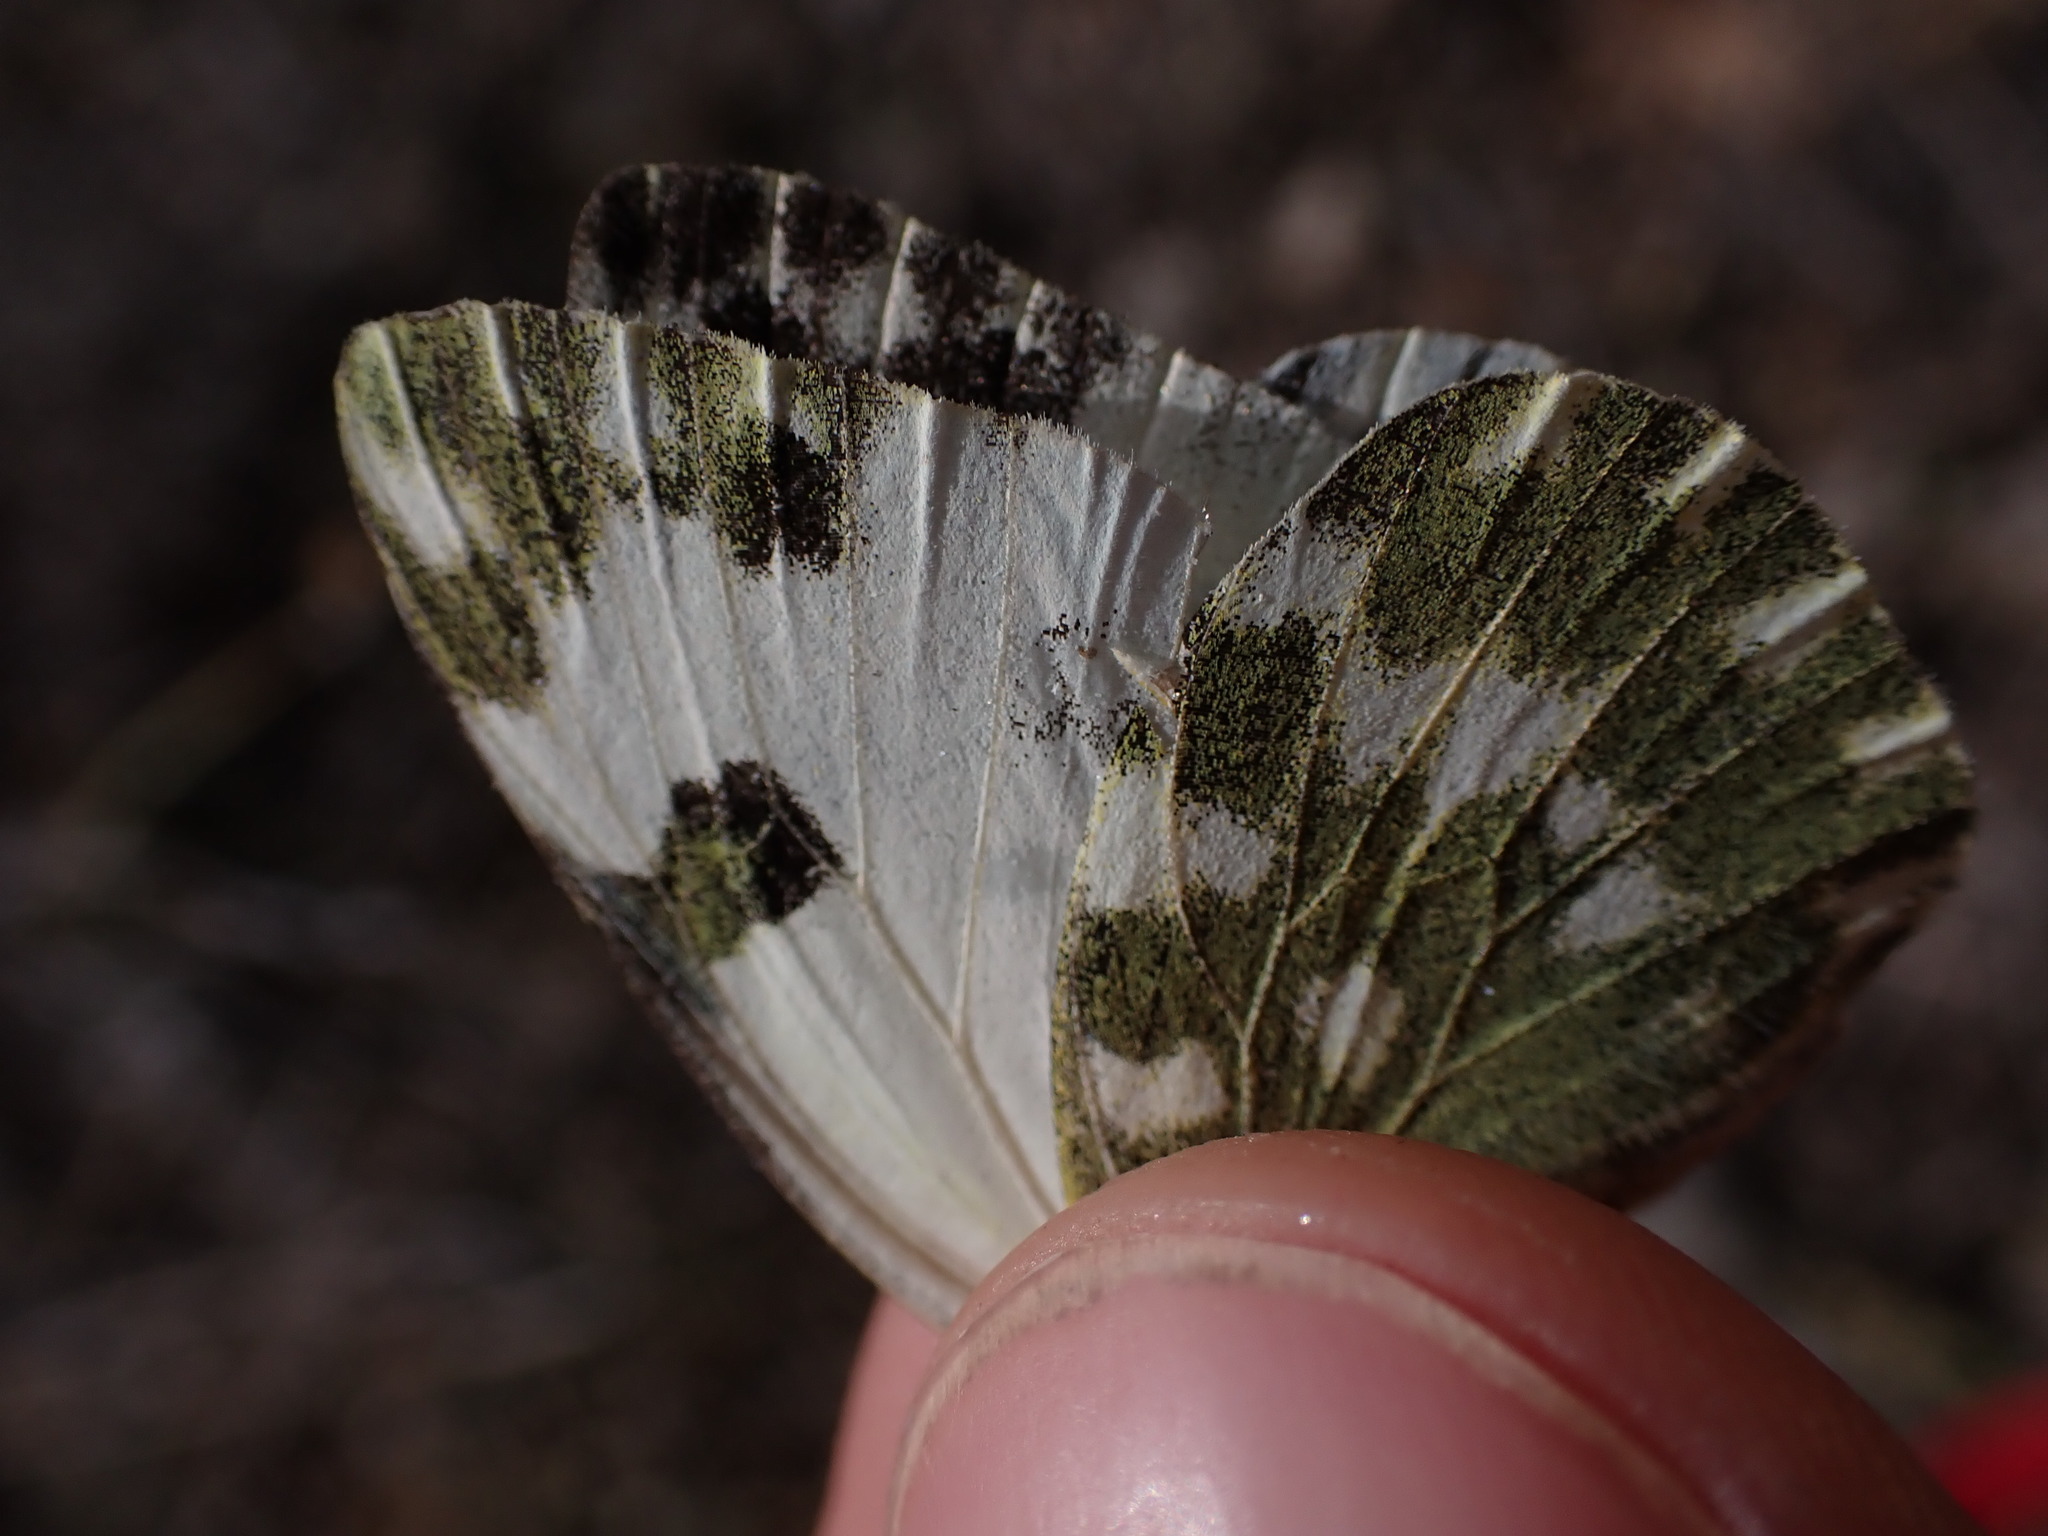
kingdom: Animalia
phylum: Arthropoda
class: Insecta
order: Lepidoptera
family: Pieridae
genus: Pontia
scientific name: Pontia daplidice
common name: Bath white
